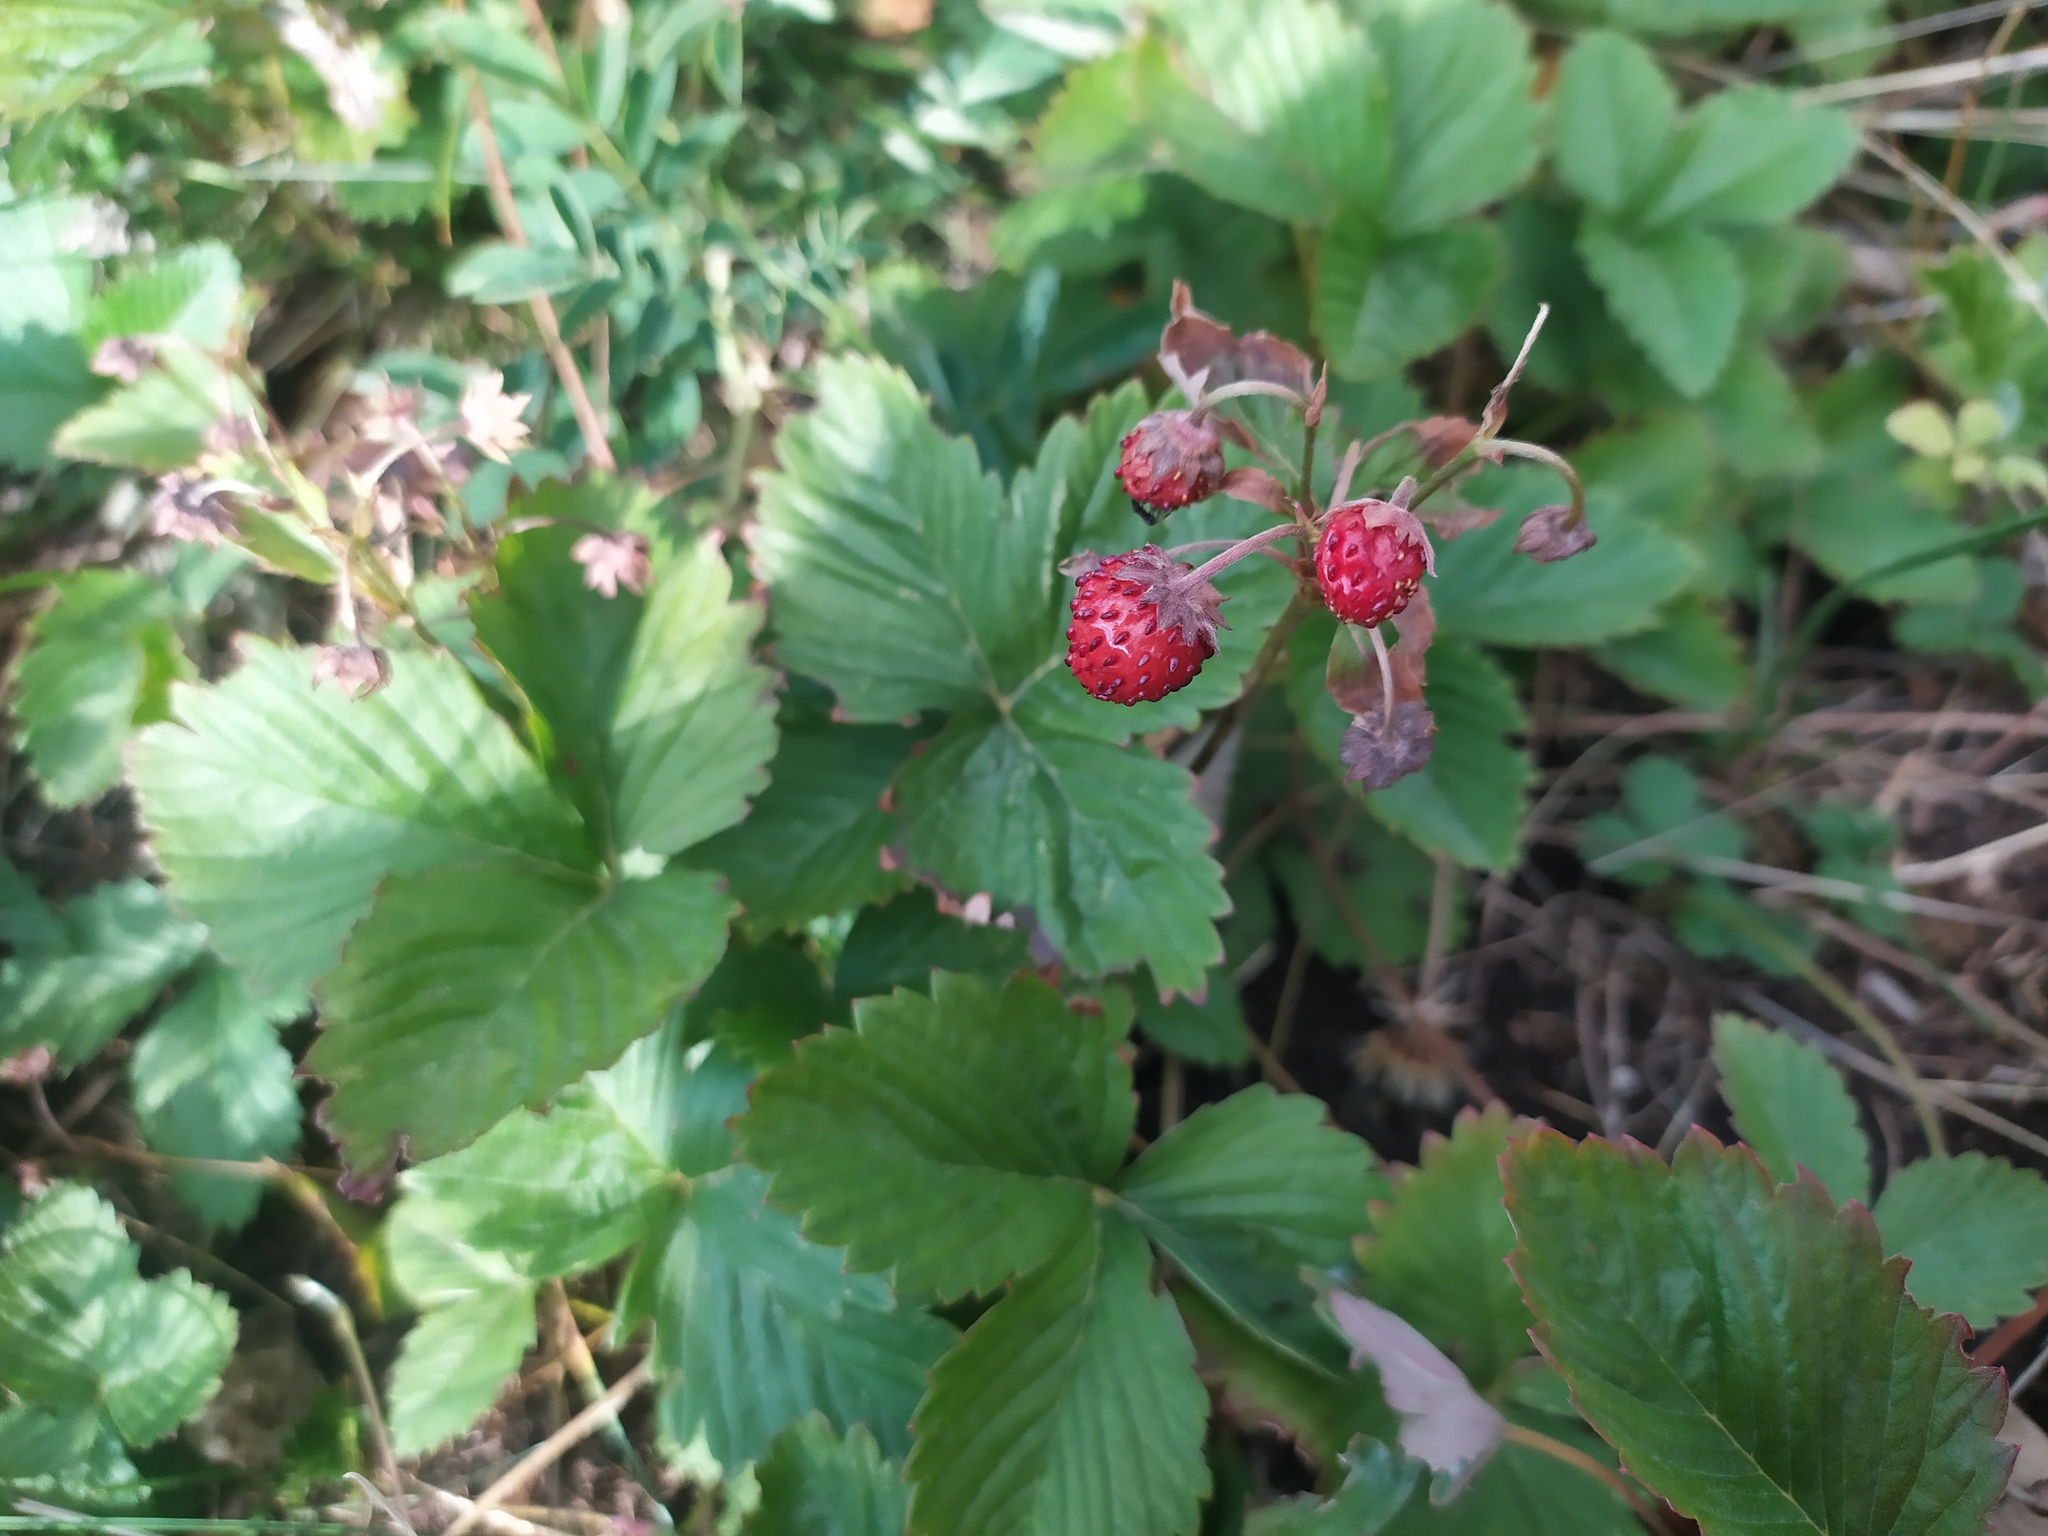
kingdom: Plantae
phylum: Tracheophyta
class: Magnoliopsida
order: Rosales
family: Rosaceae
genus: Fragaria
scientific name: Fragaria vesca
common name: Wild strawberry
